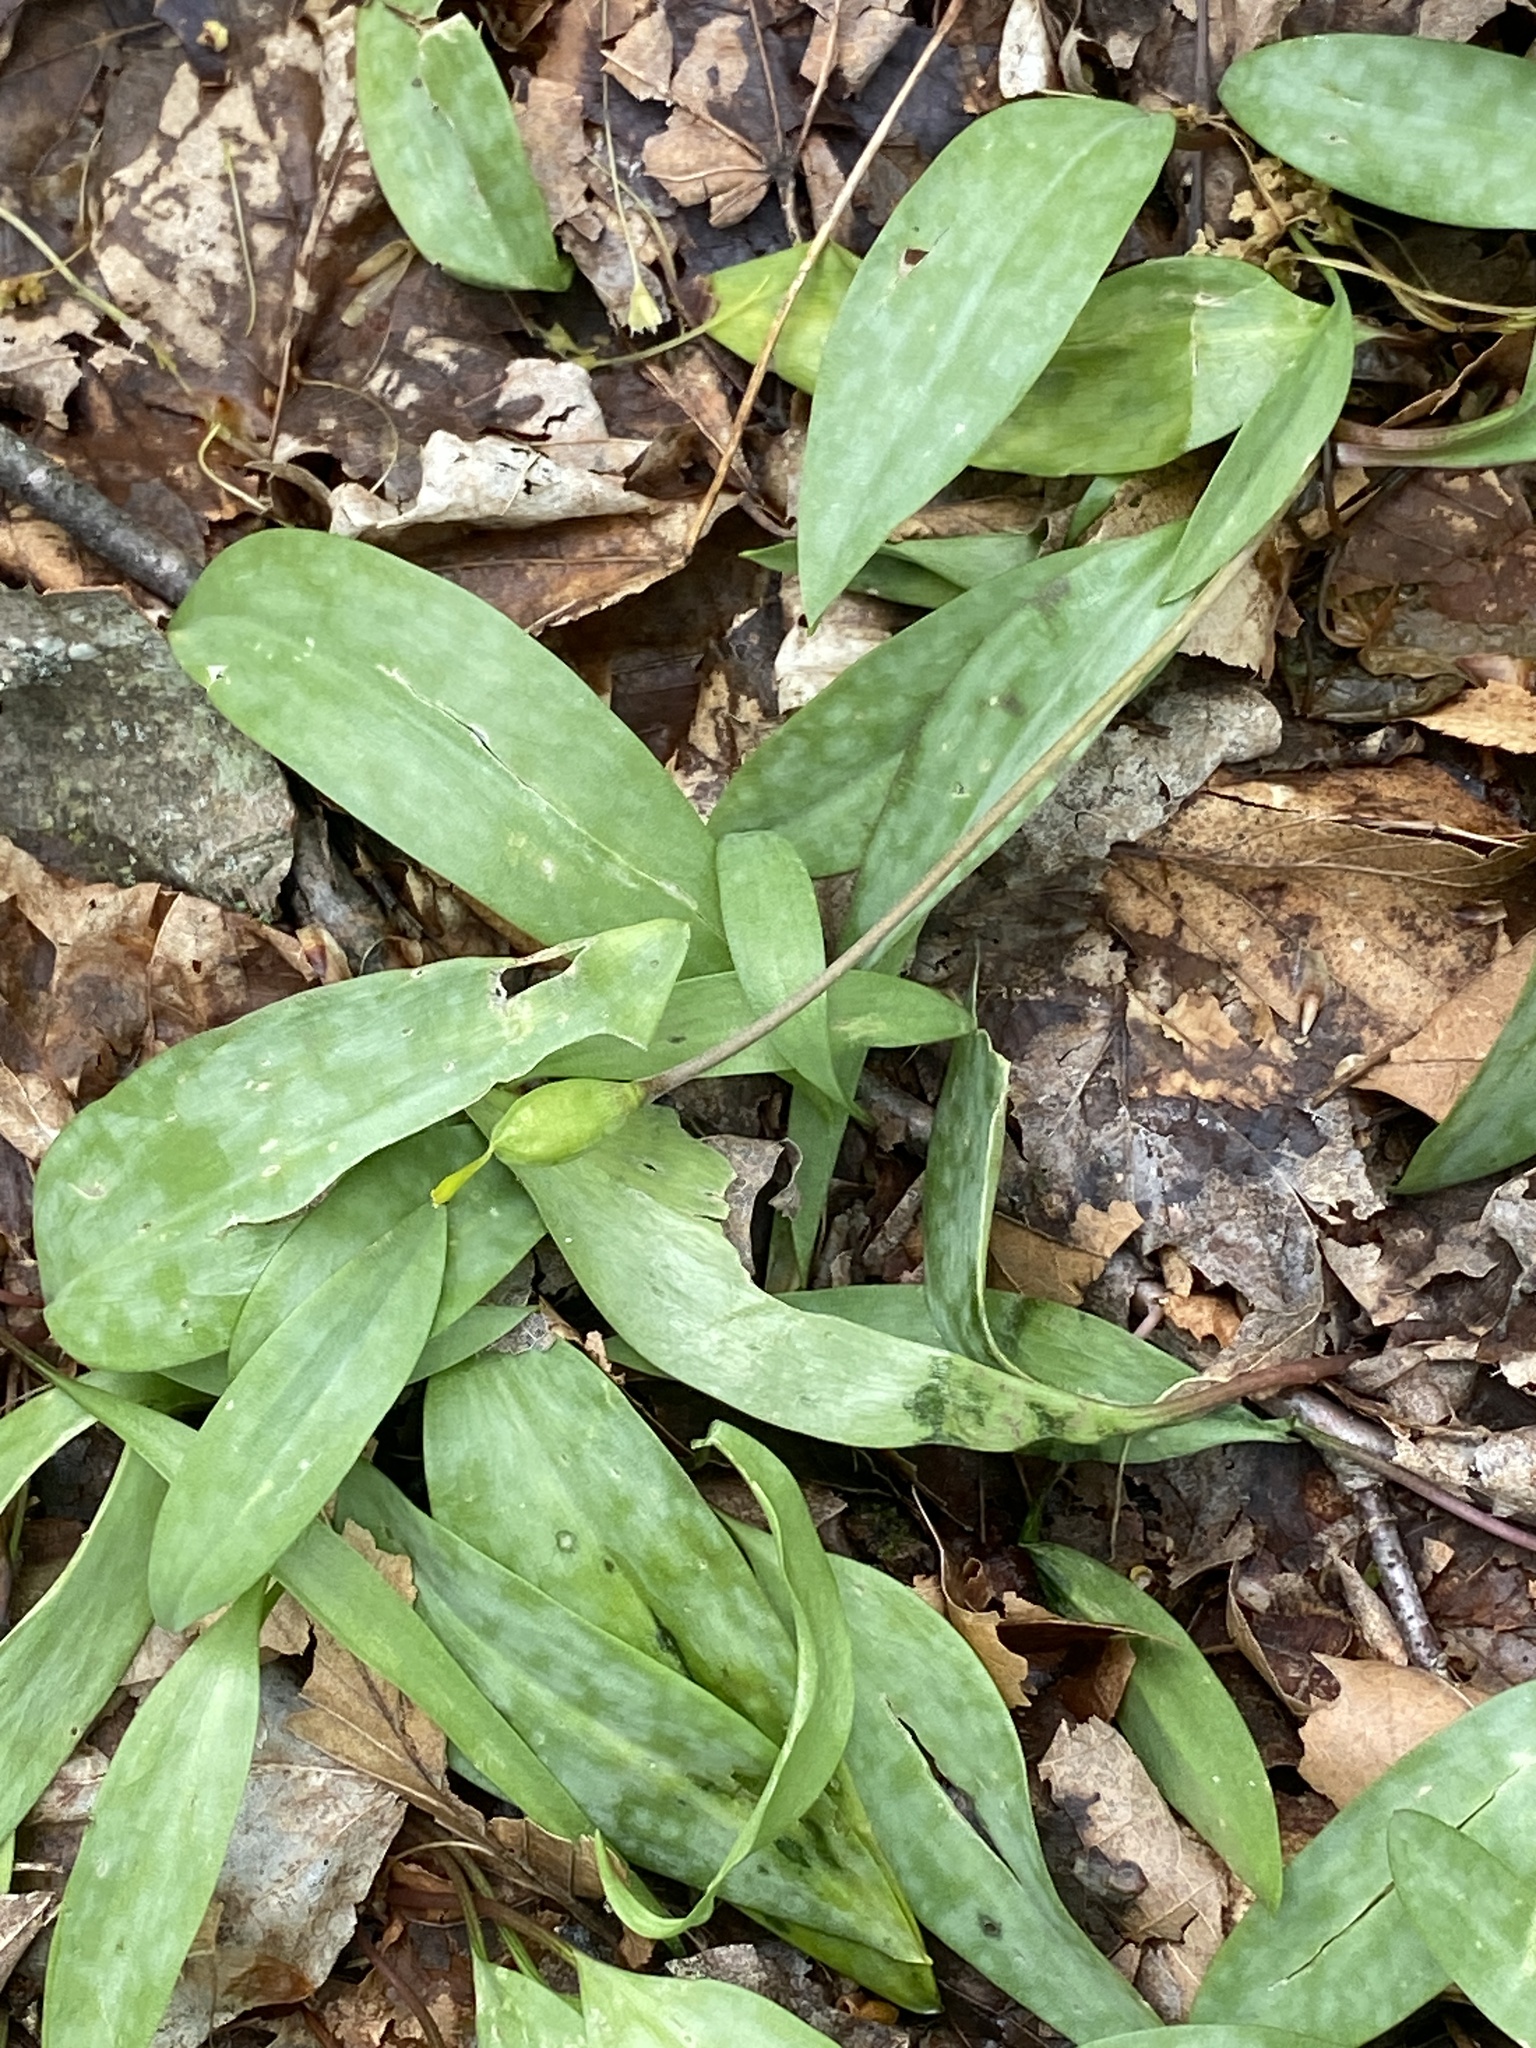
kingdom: Plantae
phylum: Tracheophyta
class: Liliopsida
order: Liliales
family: Liliaceae
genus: Erythronium
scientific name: Erythronium americanum
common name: Yellow adder's-tongue
